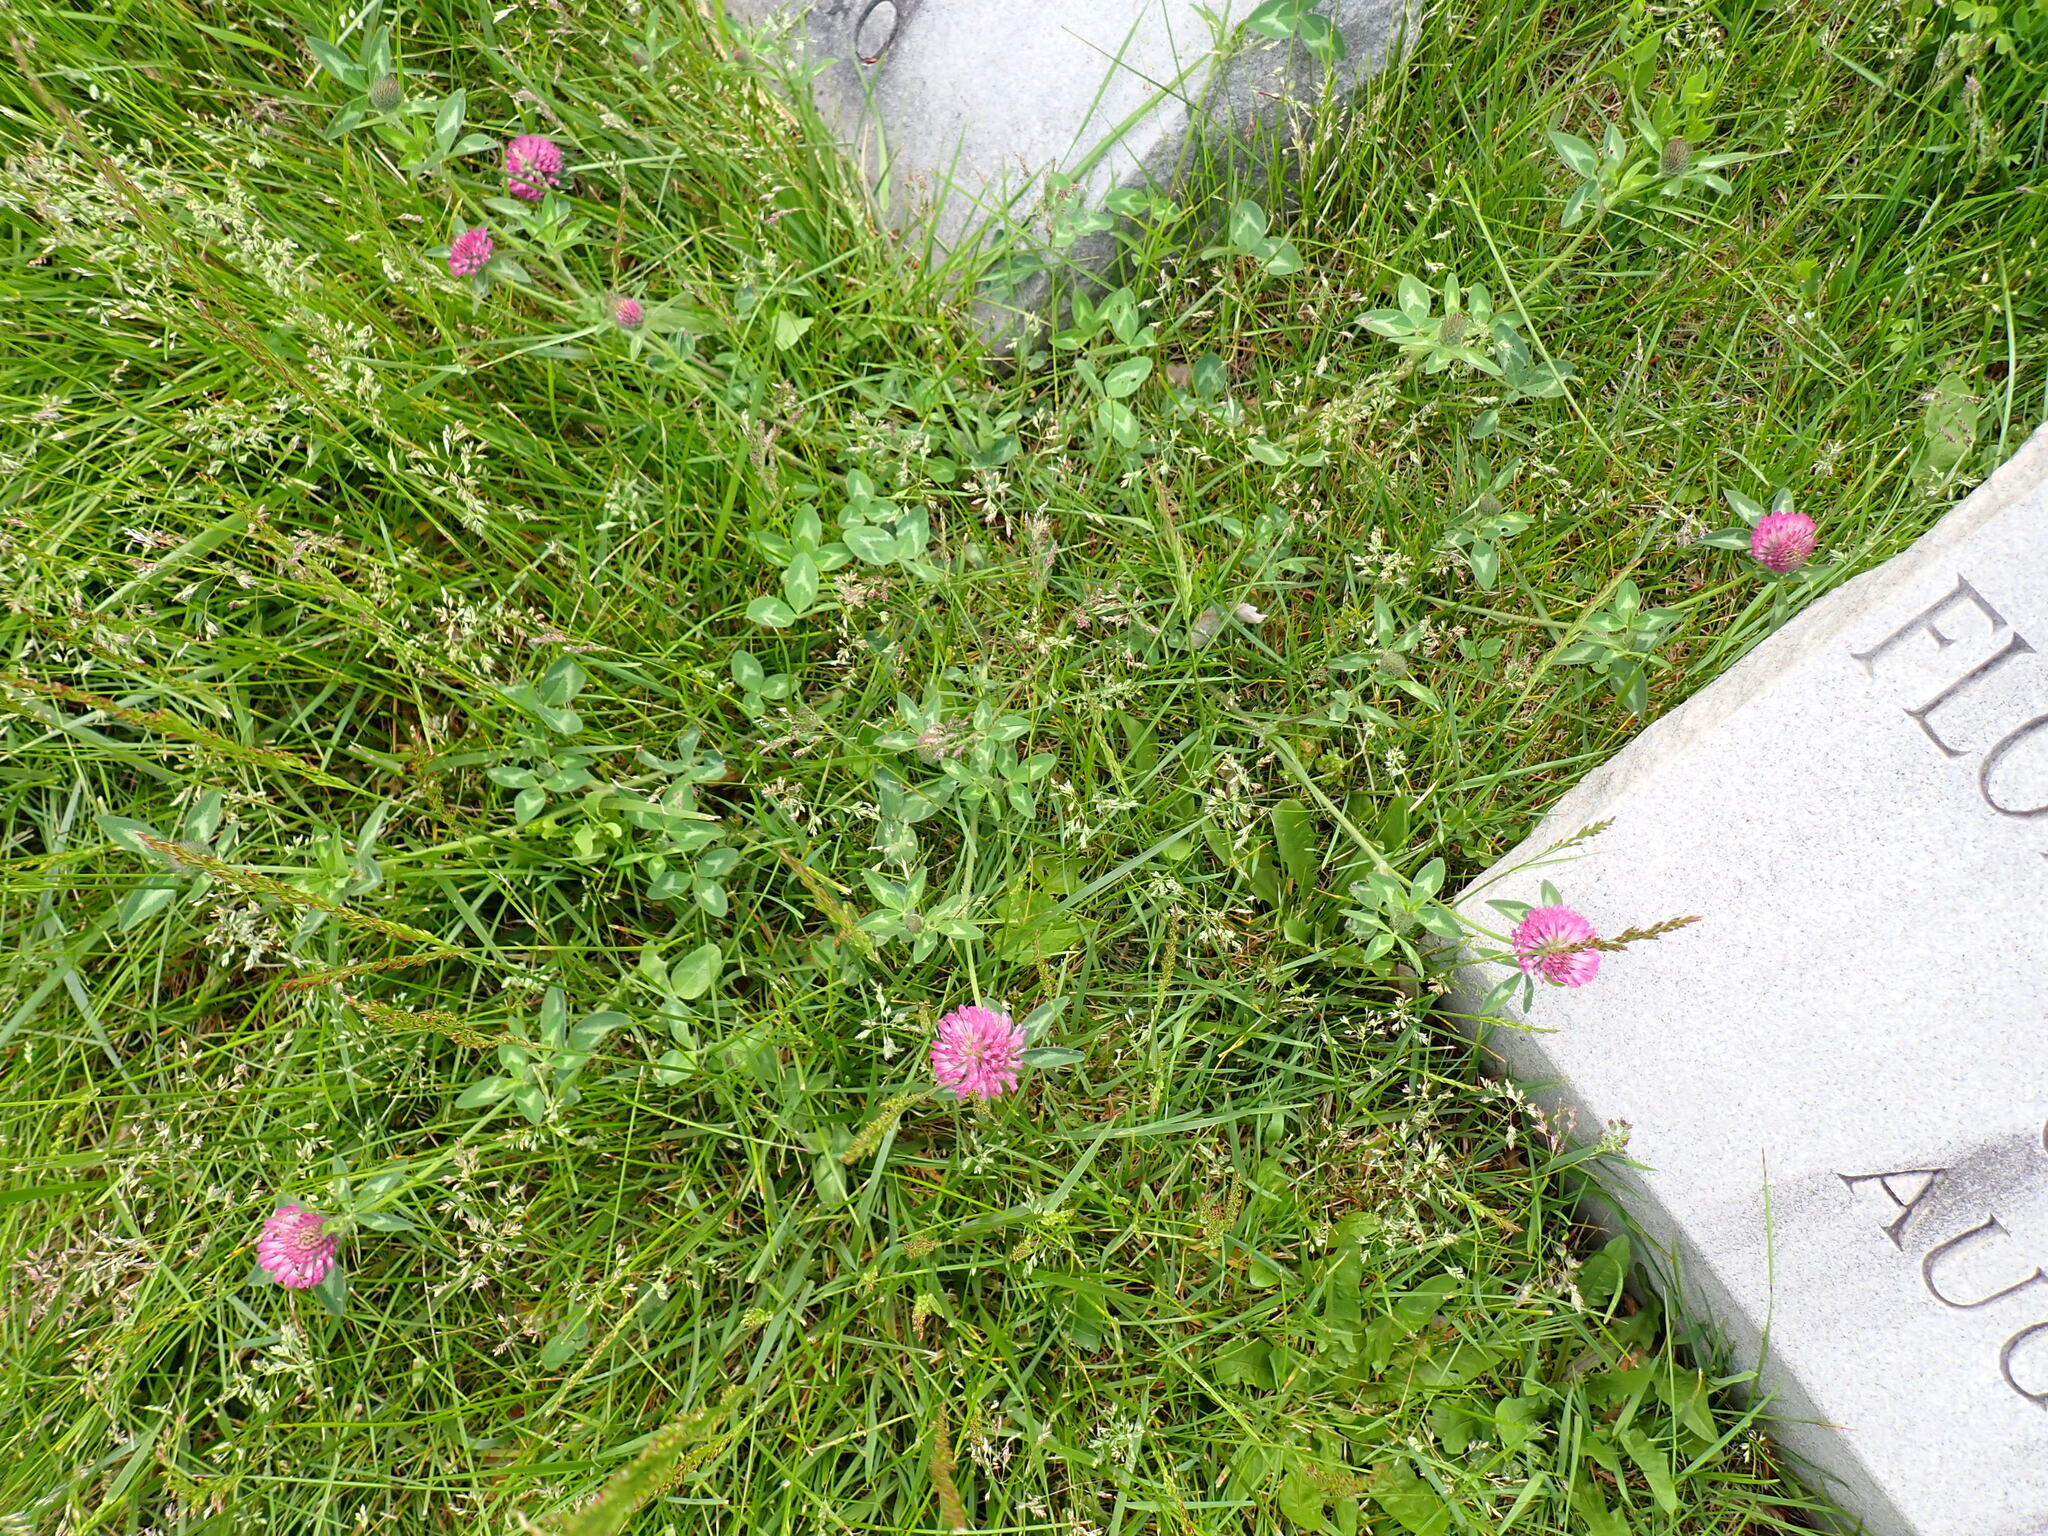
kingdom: Plantae
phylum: Tracheophyta
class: Magnoliopsida
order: Fabales
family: Fabaceae
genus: Trifolium
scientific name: Trifolium pratense
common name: Red clover
